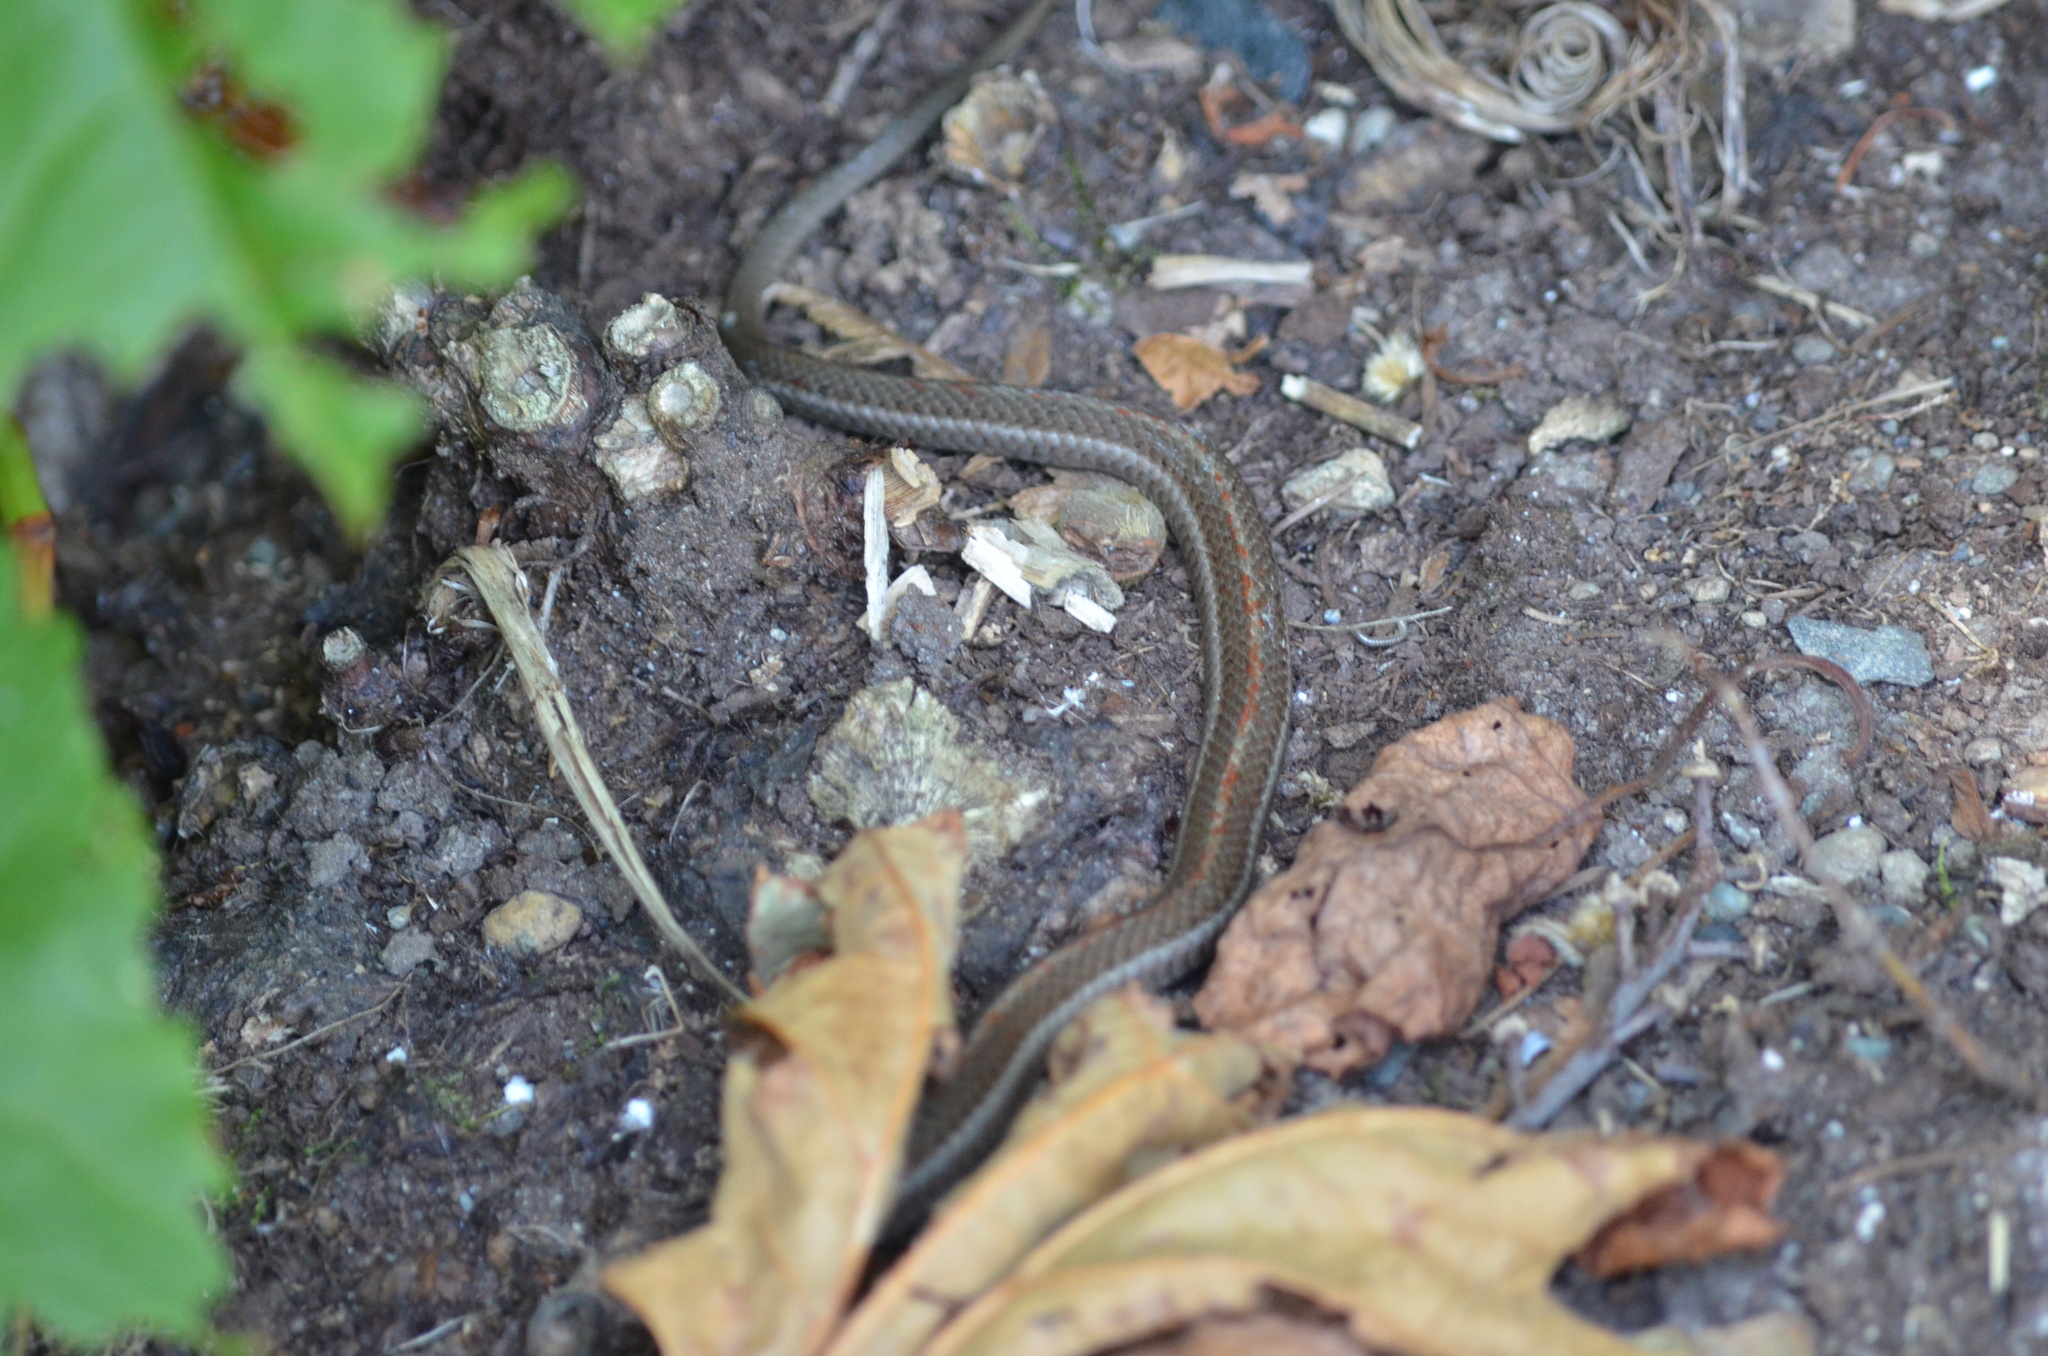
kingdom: Animalia
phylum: Chordata
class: Squamata
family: Colubridae
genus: Thamnophis
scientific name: Thamnophis ordinoides
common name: Northwestern garter snake
